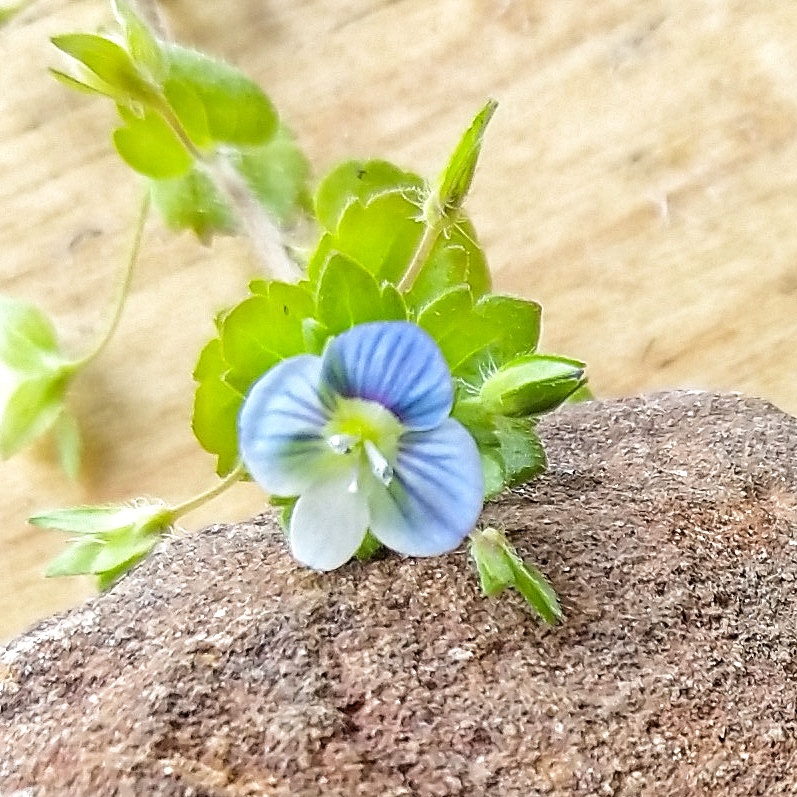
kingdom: Plantae
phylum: Tracheophyta
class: Magnoliopsida
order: Lamiales
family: Plantaginaceae
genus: Veronica
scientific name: Veronica persica
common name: Common field-speedwell
